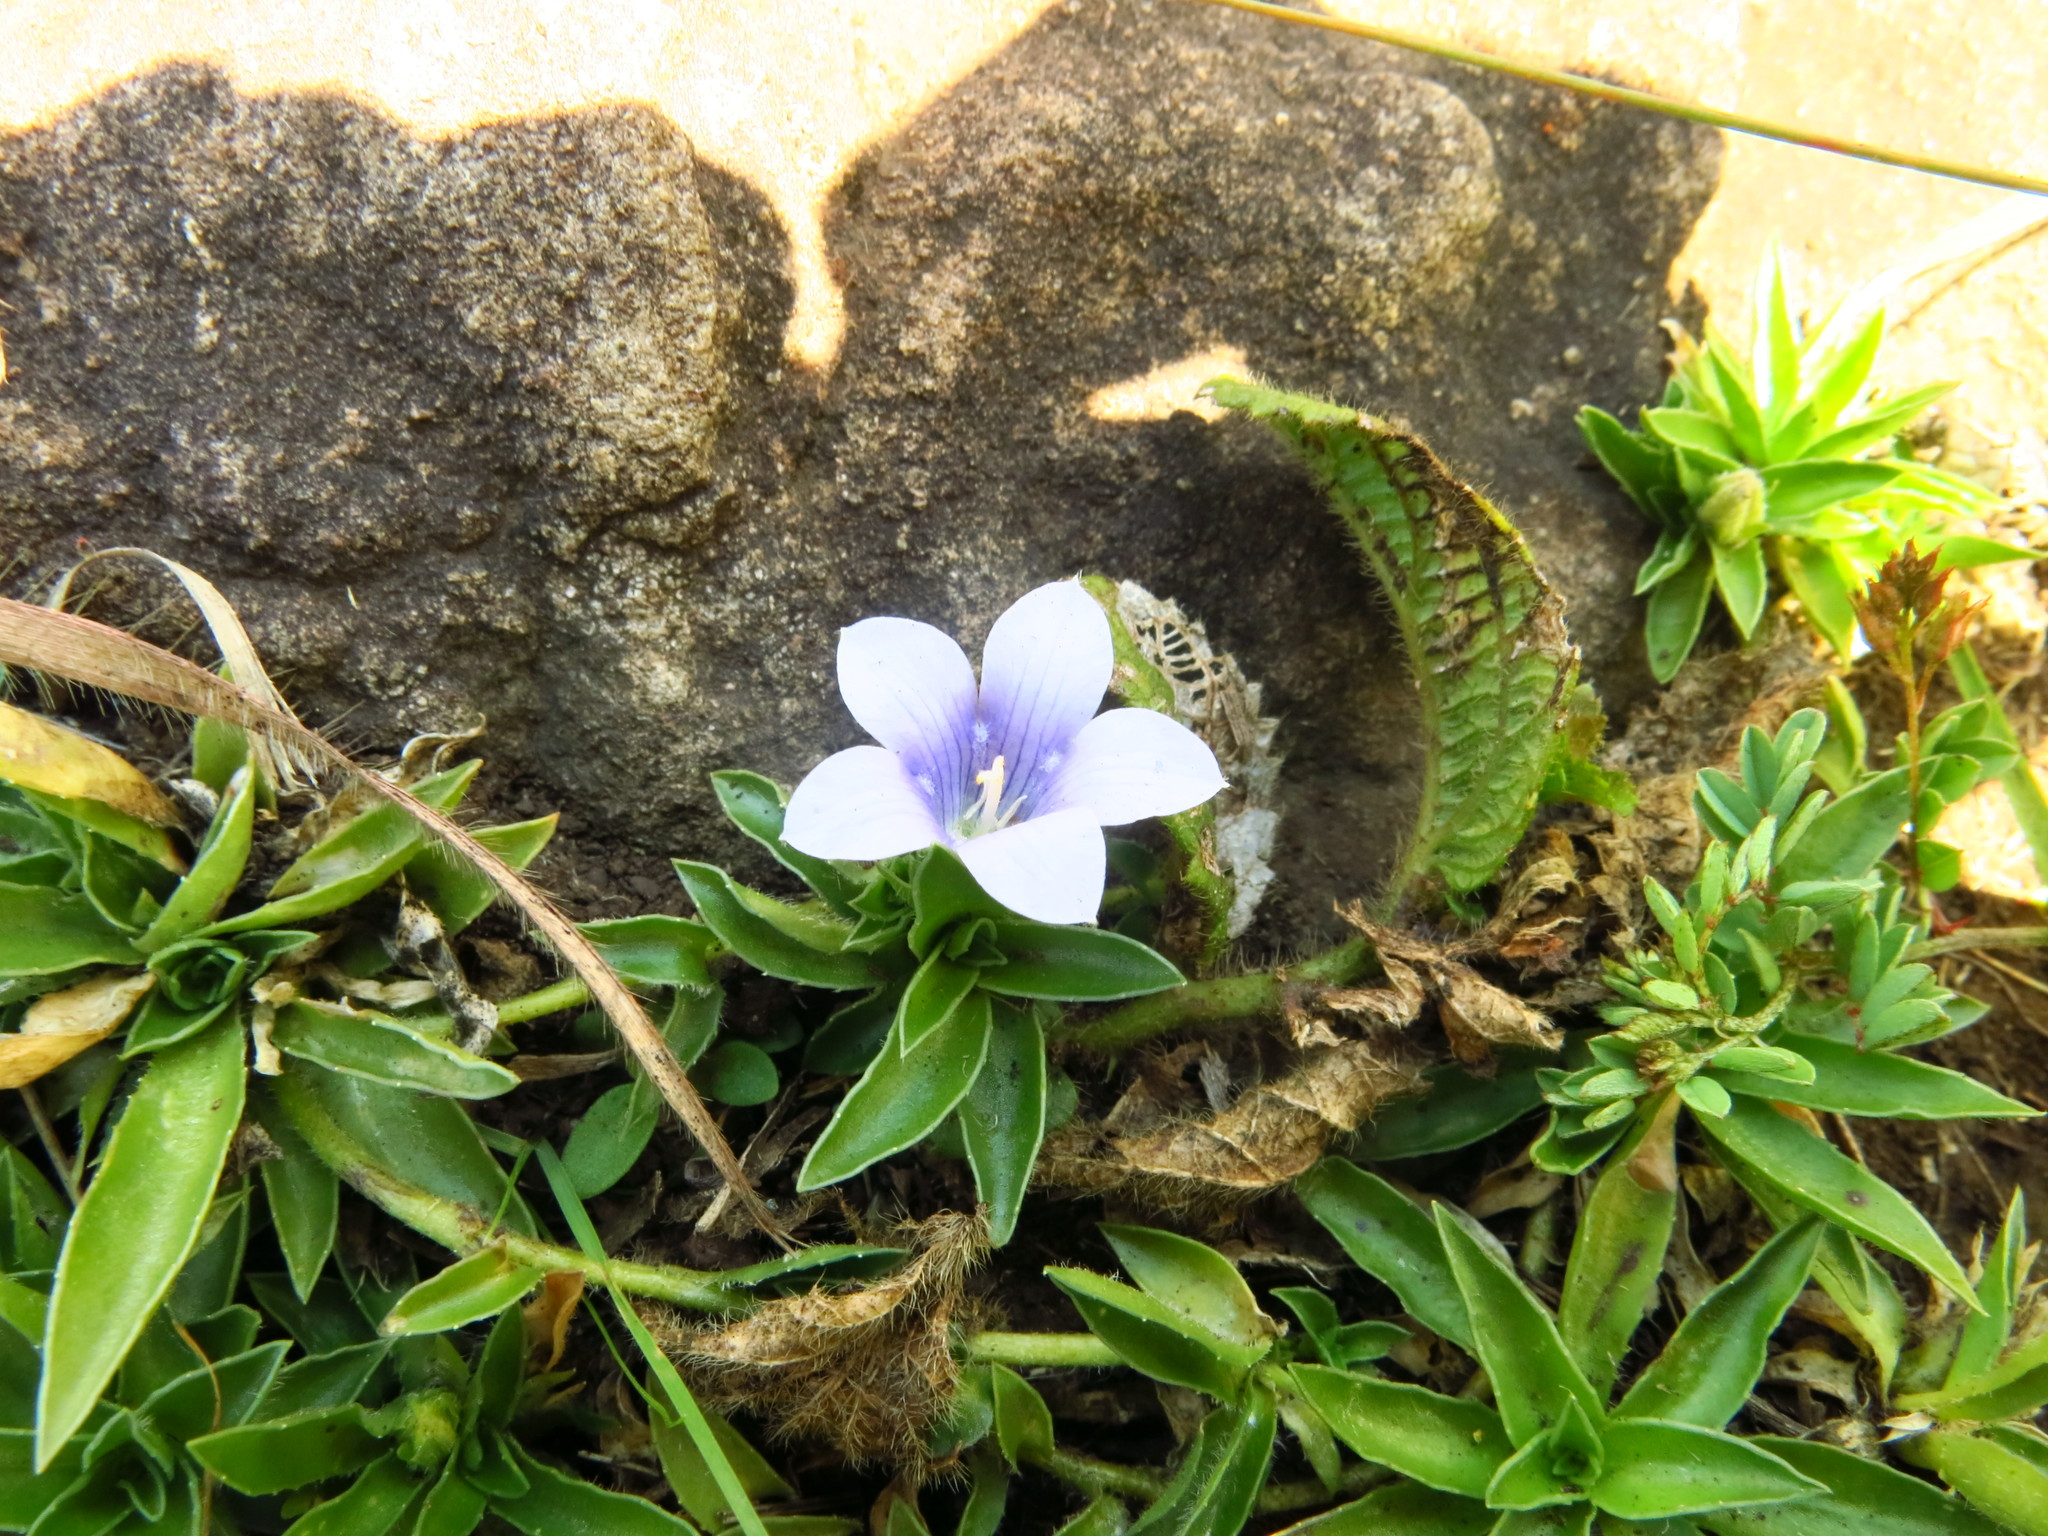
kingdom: Plantae
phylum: Tracheophyta
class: Magnoliopsida
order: Asterales
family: Campanulaceae
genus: Craterocapsa
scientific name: Craterocapsa tarsodes
